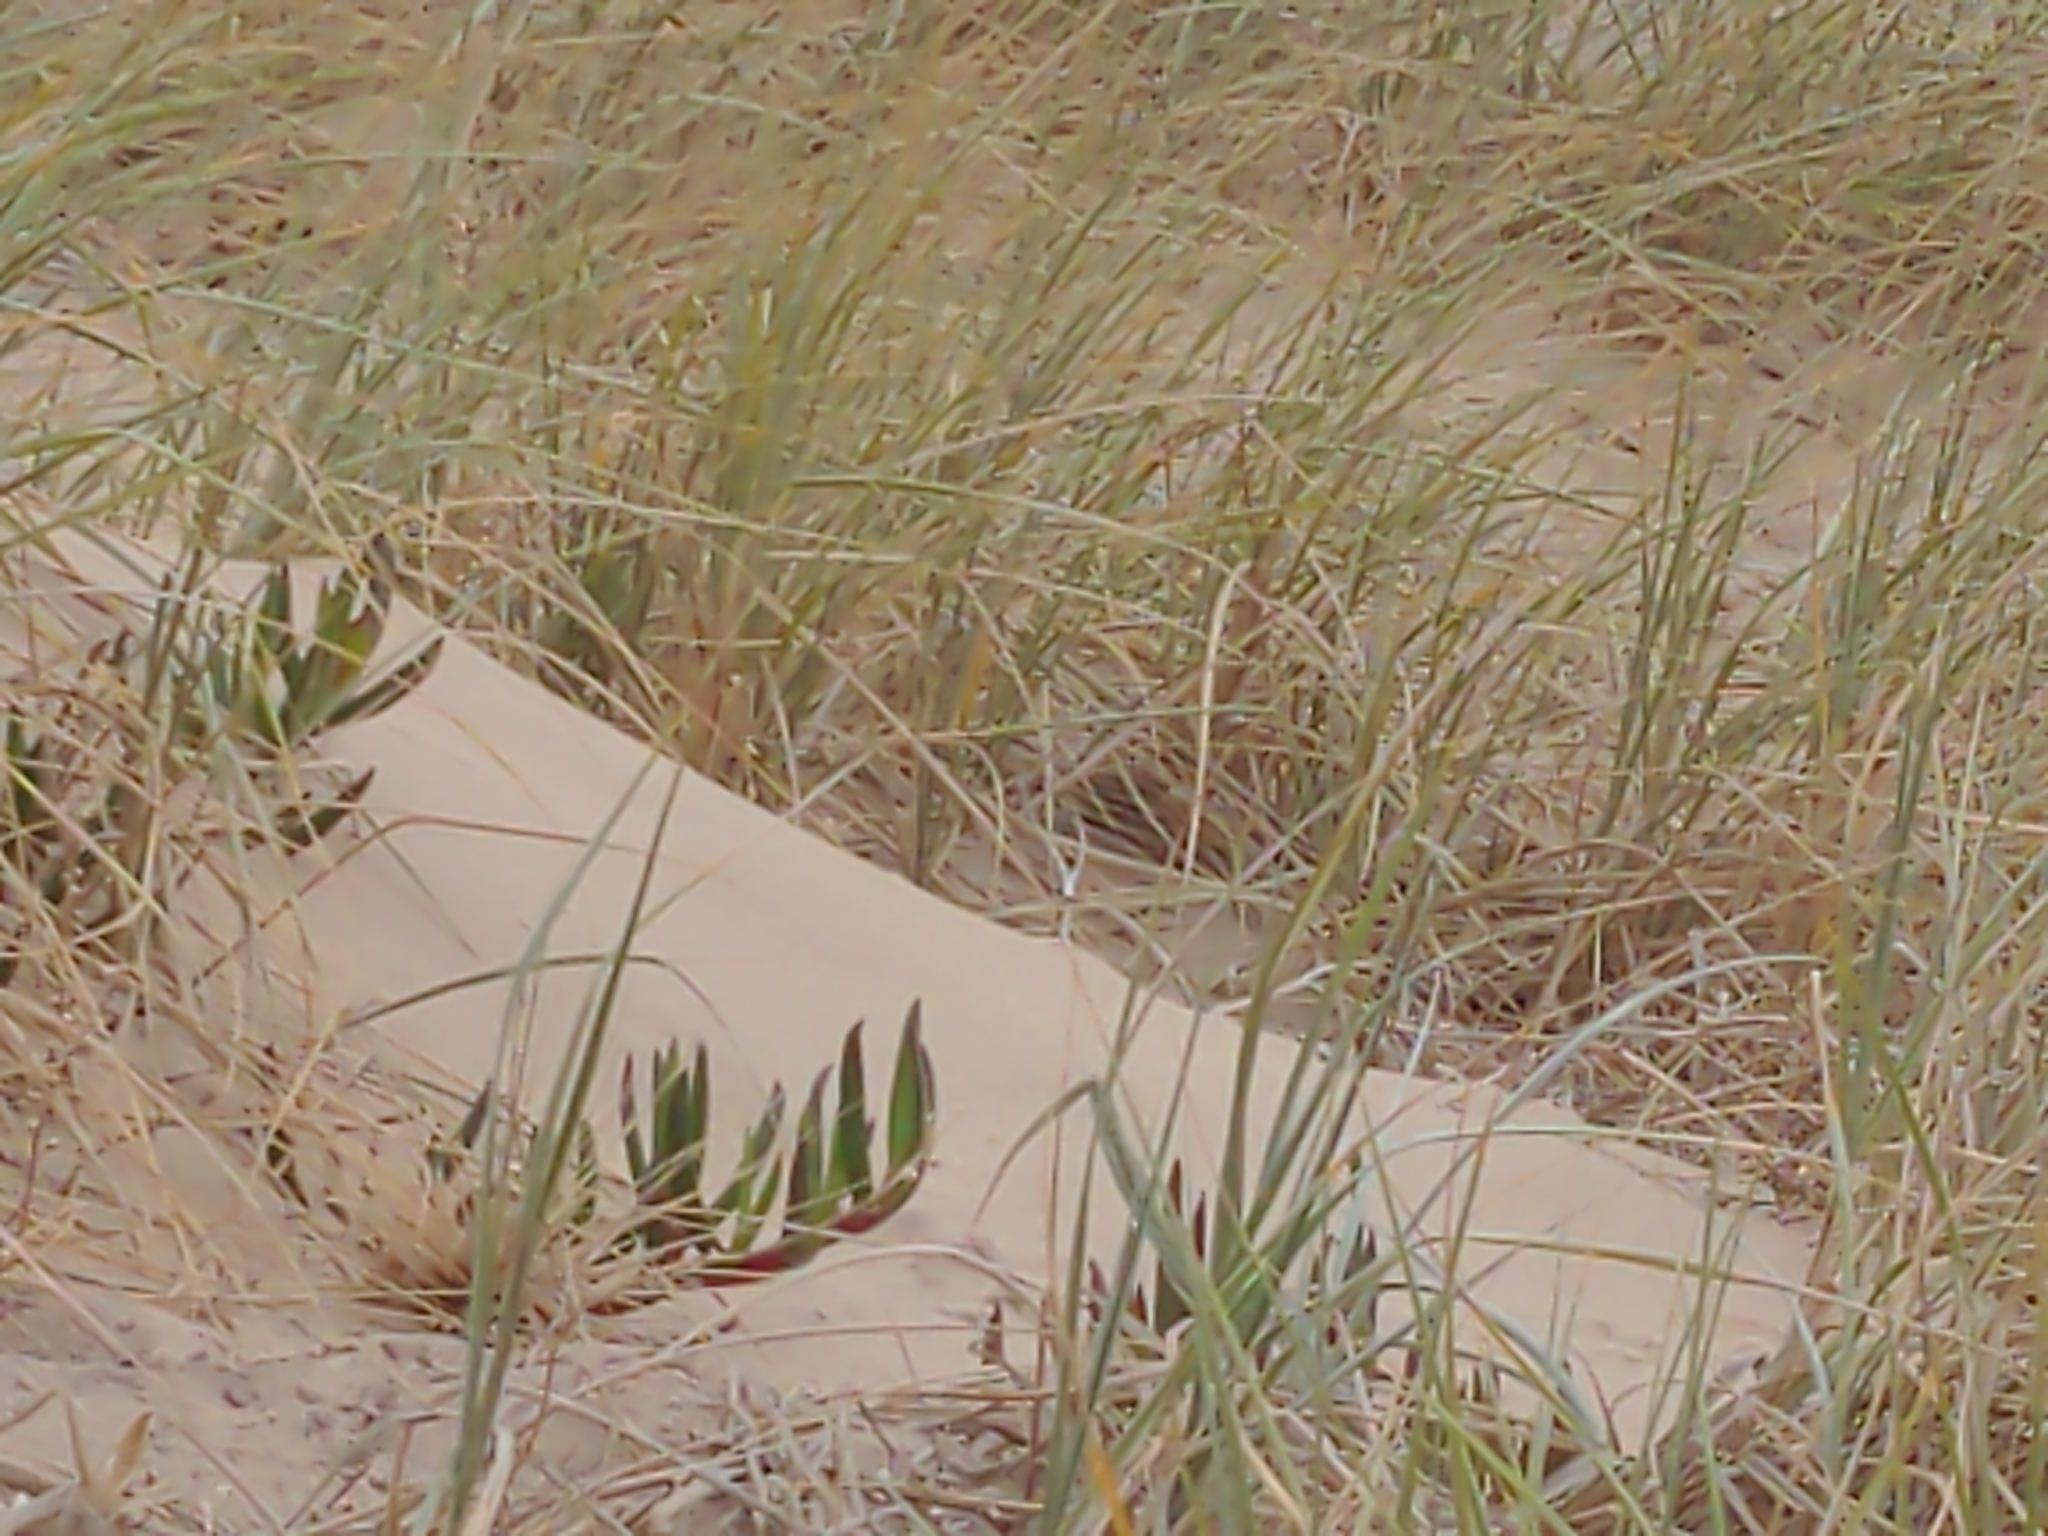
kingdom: Plantae
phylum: Tracheophyta
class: Magnoliopsida
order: Caryophyllales
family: Aizoaceae
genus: Carpobrotus
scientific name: Carpobrotus rossii
